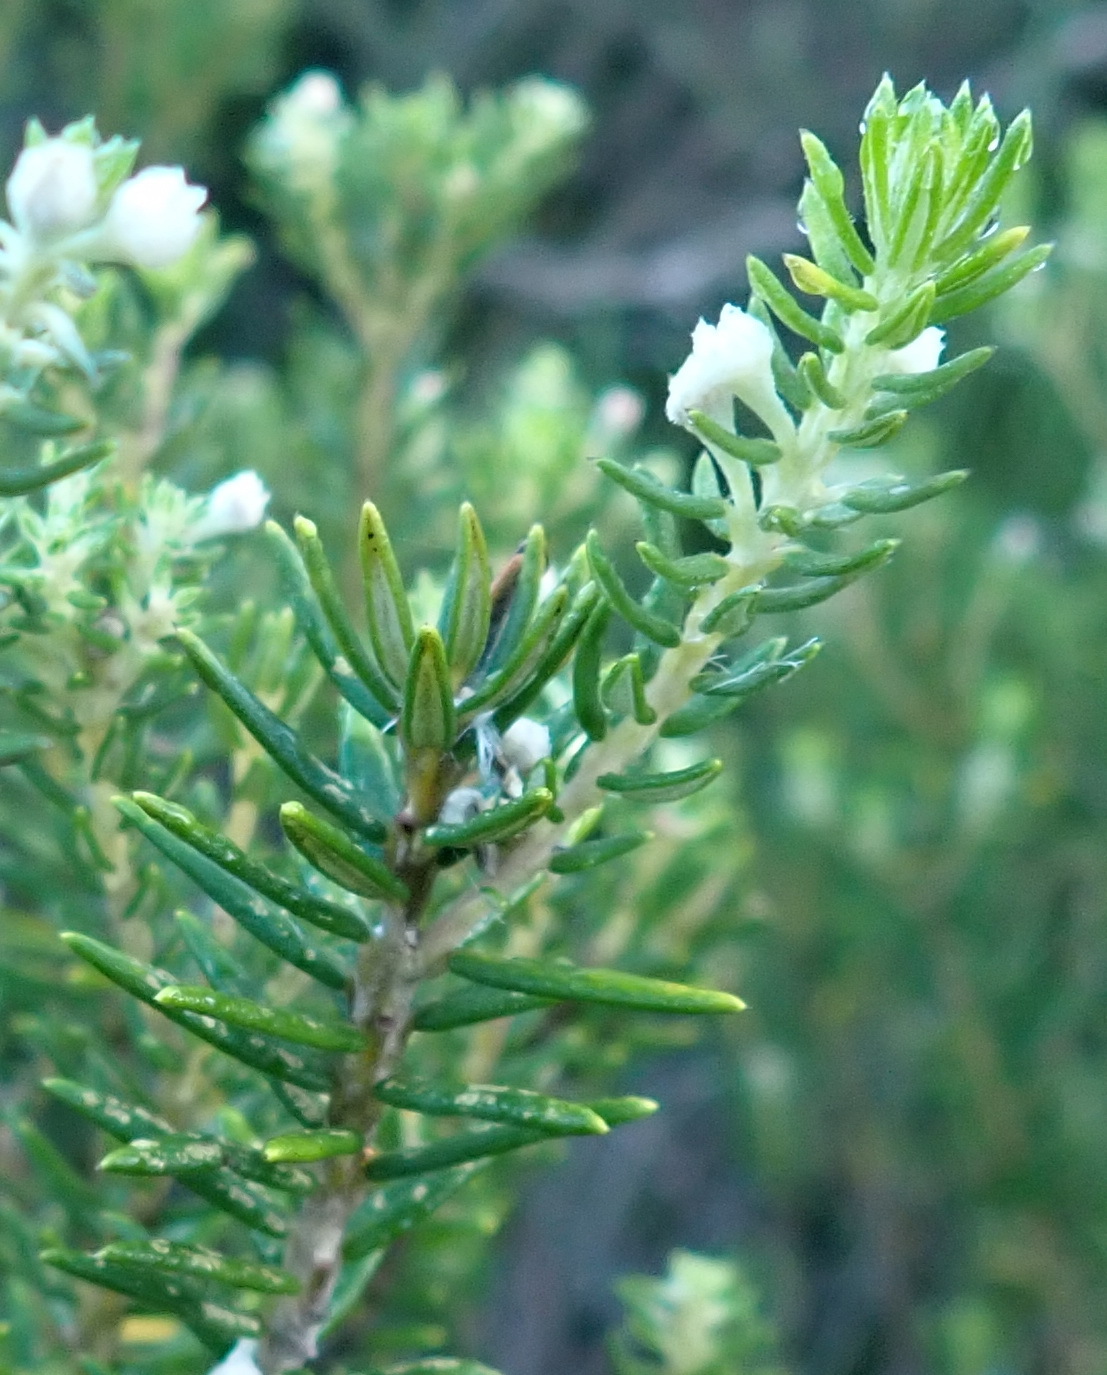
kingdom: Plantae
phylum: Tracheophyta
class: Magnoliopsida
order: Rosales
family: Rhamnaceae
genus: Phylica
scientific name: Phylica axillaris
